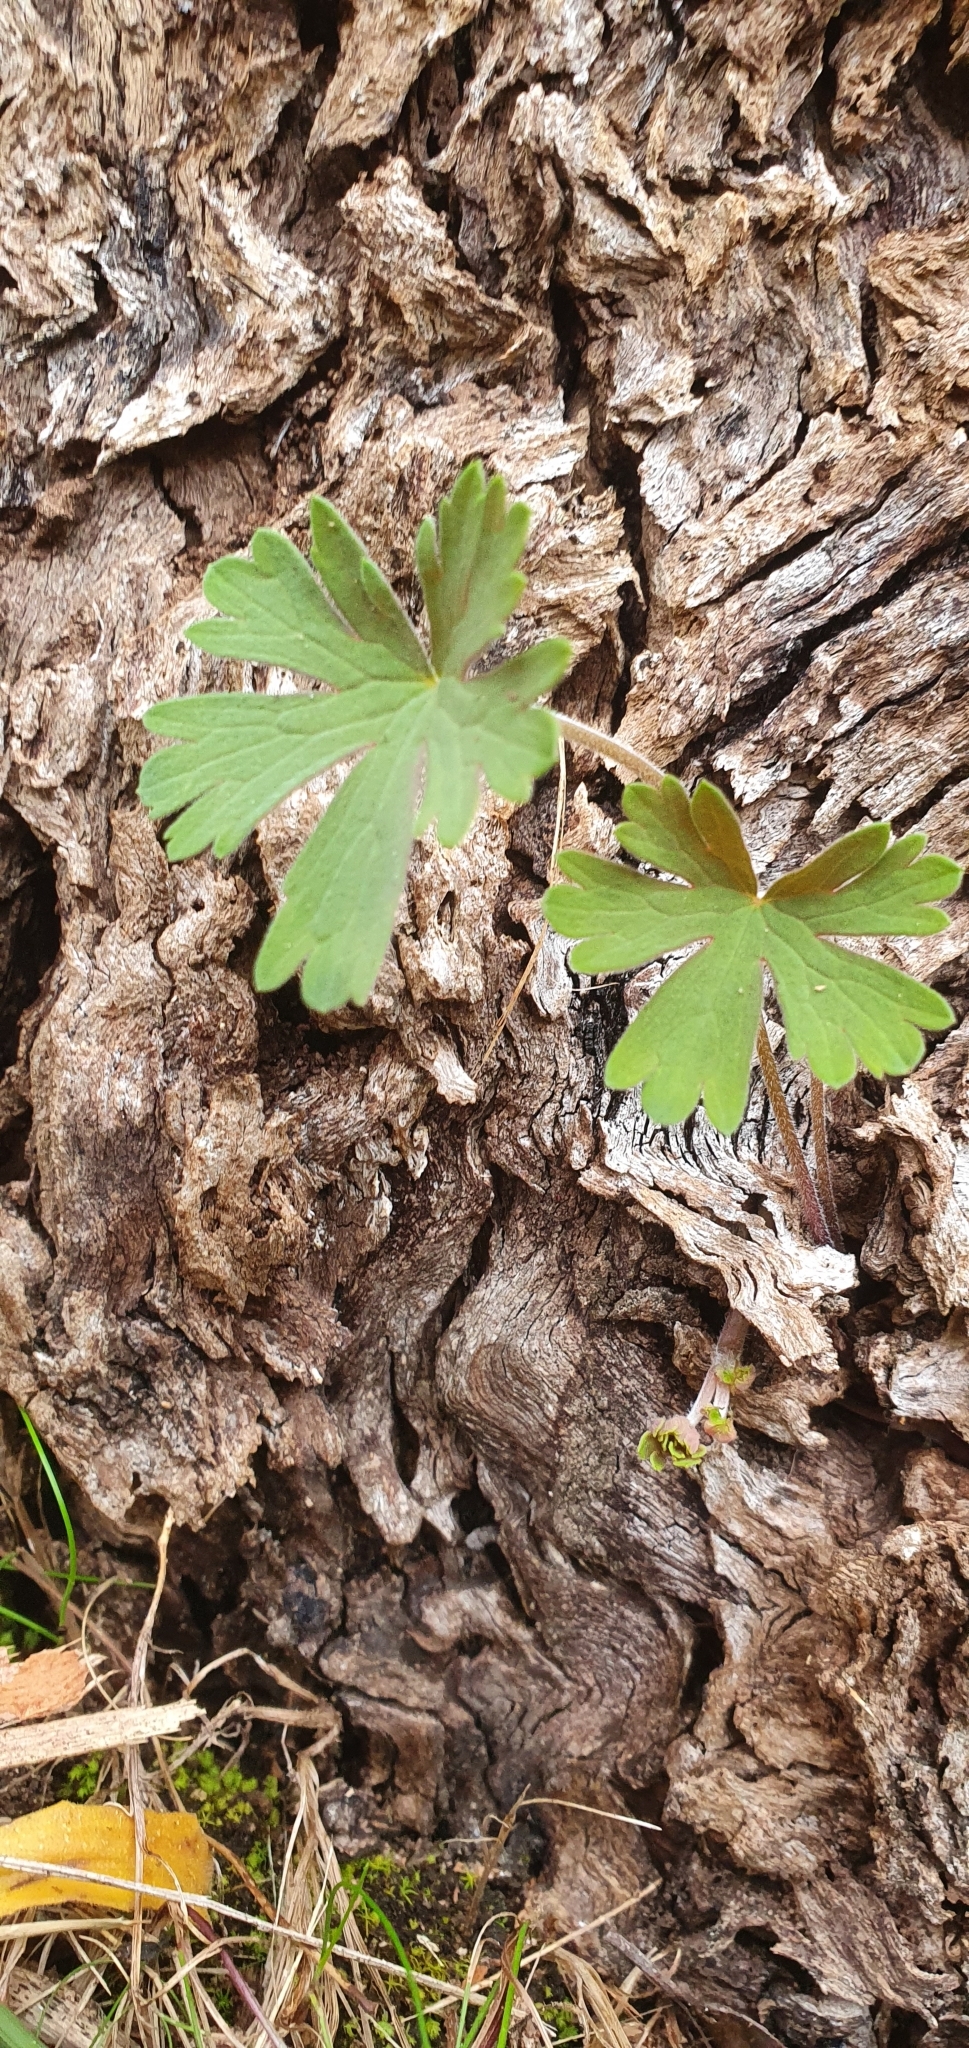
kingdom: Plantae
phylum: Tracheophyta
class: Magnoliopsida
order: Geraniales
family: Geraniaceae
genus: Geranium
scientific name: Geranium potentilloides
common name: Cinquefoil geranium
